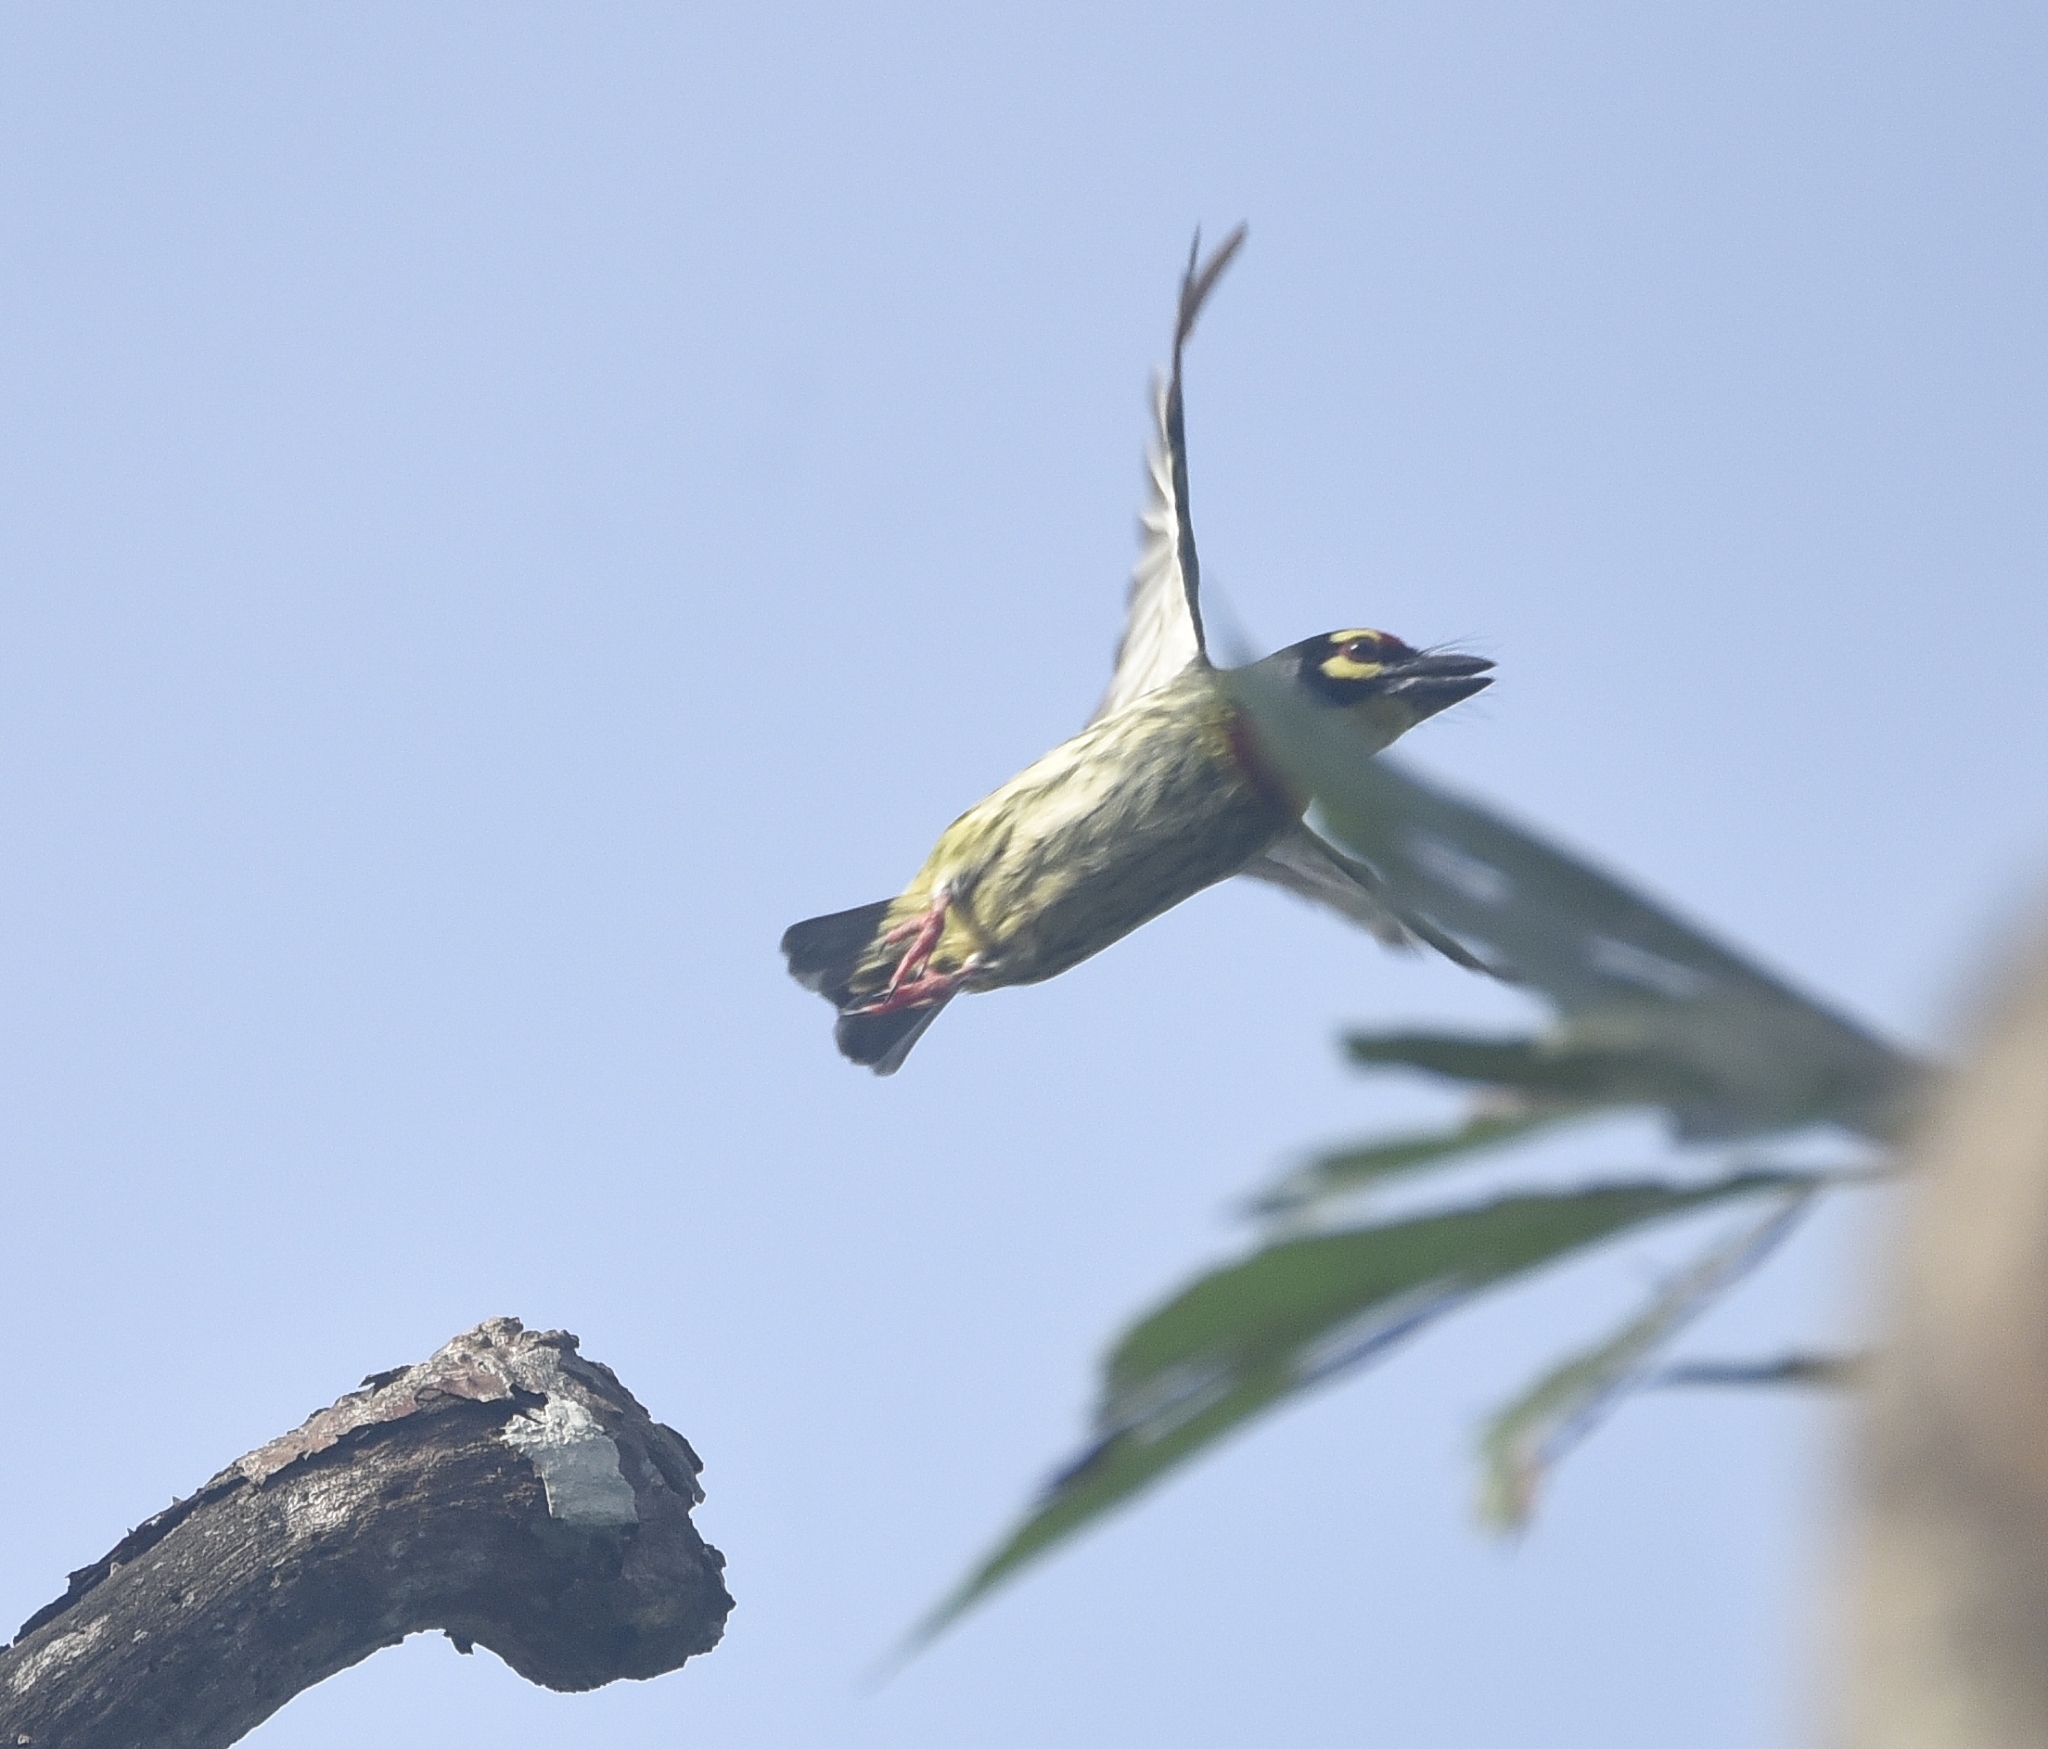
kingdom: Animalia
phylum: Chordata
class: Aves
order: Piciformes
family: Megalaimidae
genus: Psilopogon
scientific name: Psilopogon haemacephalus
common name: Coppersmith barbet
